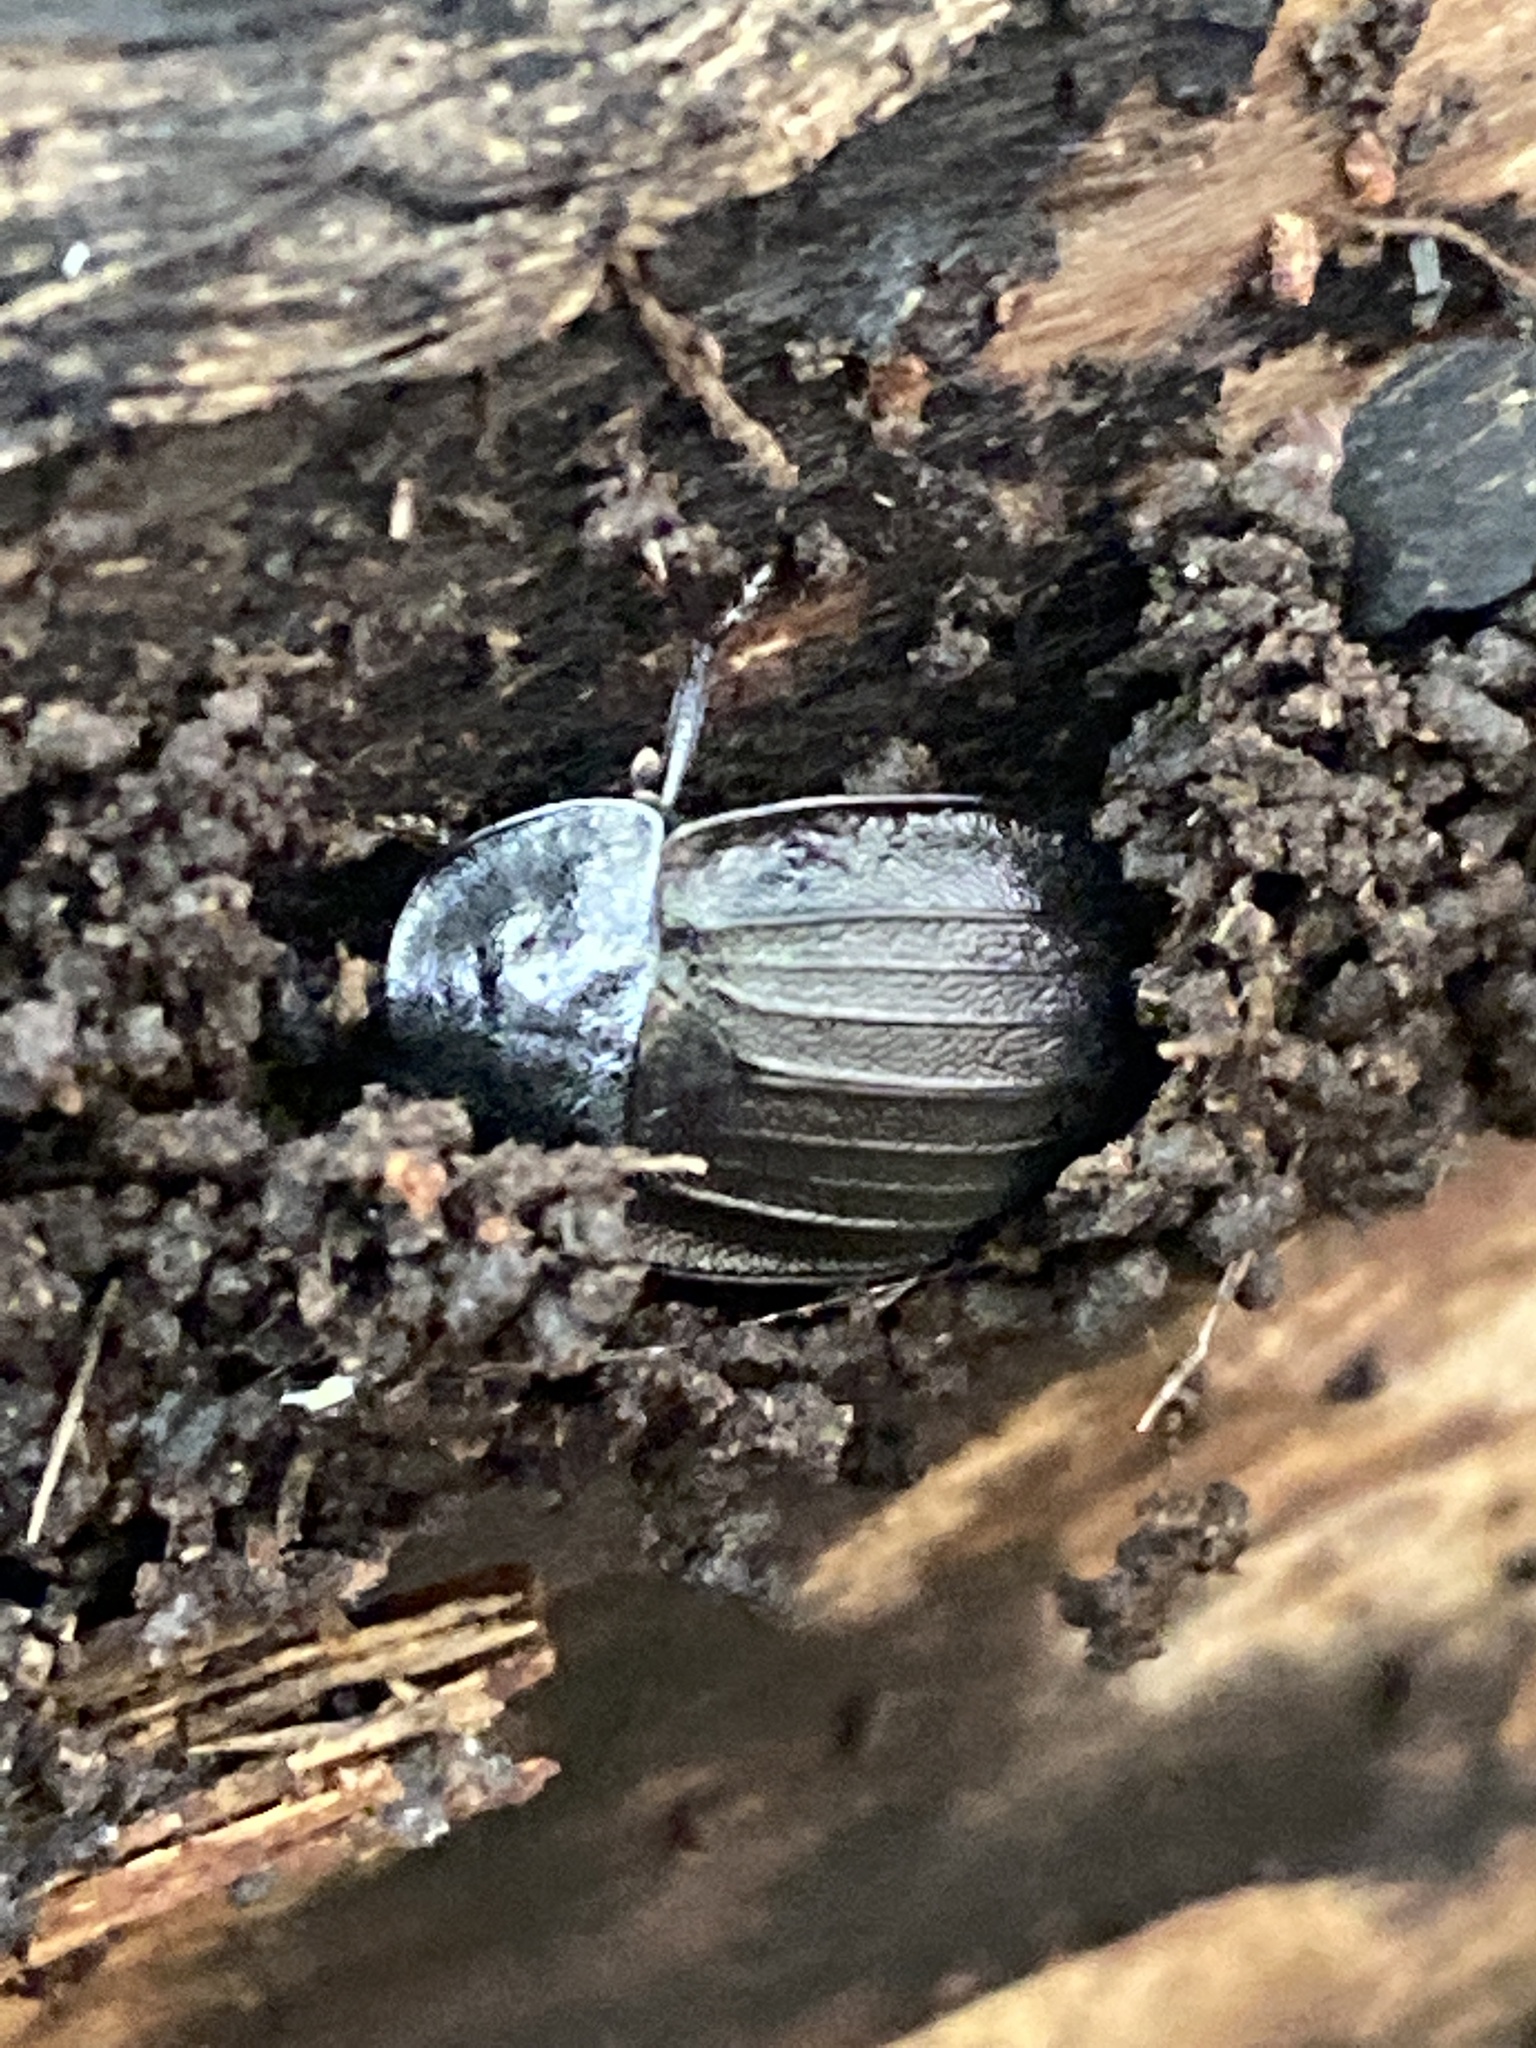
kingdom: Animalia
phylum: Arthropoda
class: Insecta
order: Coleoptera
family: Staphylinidae
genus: Silpha
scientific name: Silpha atrata
